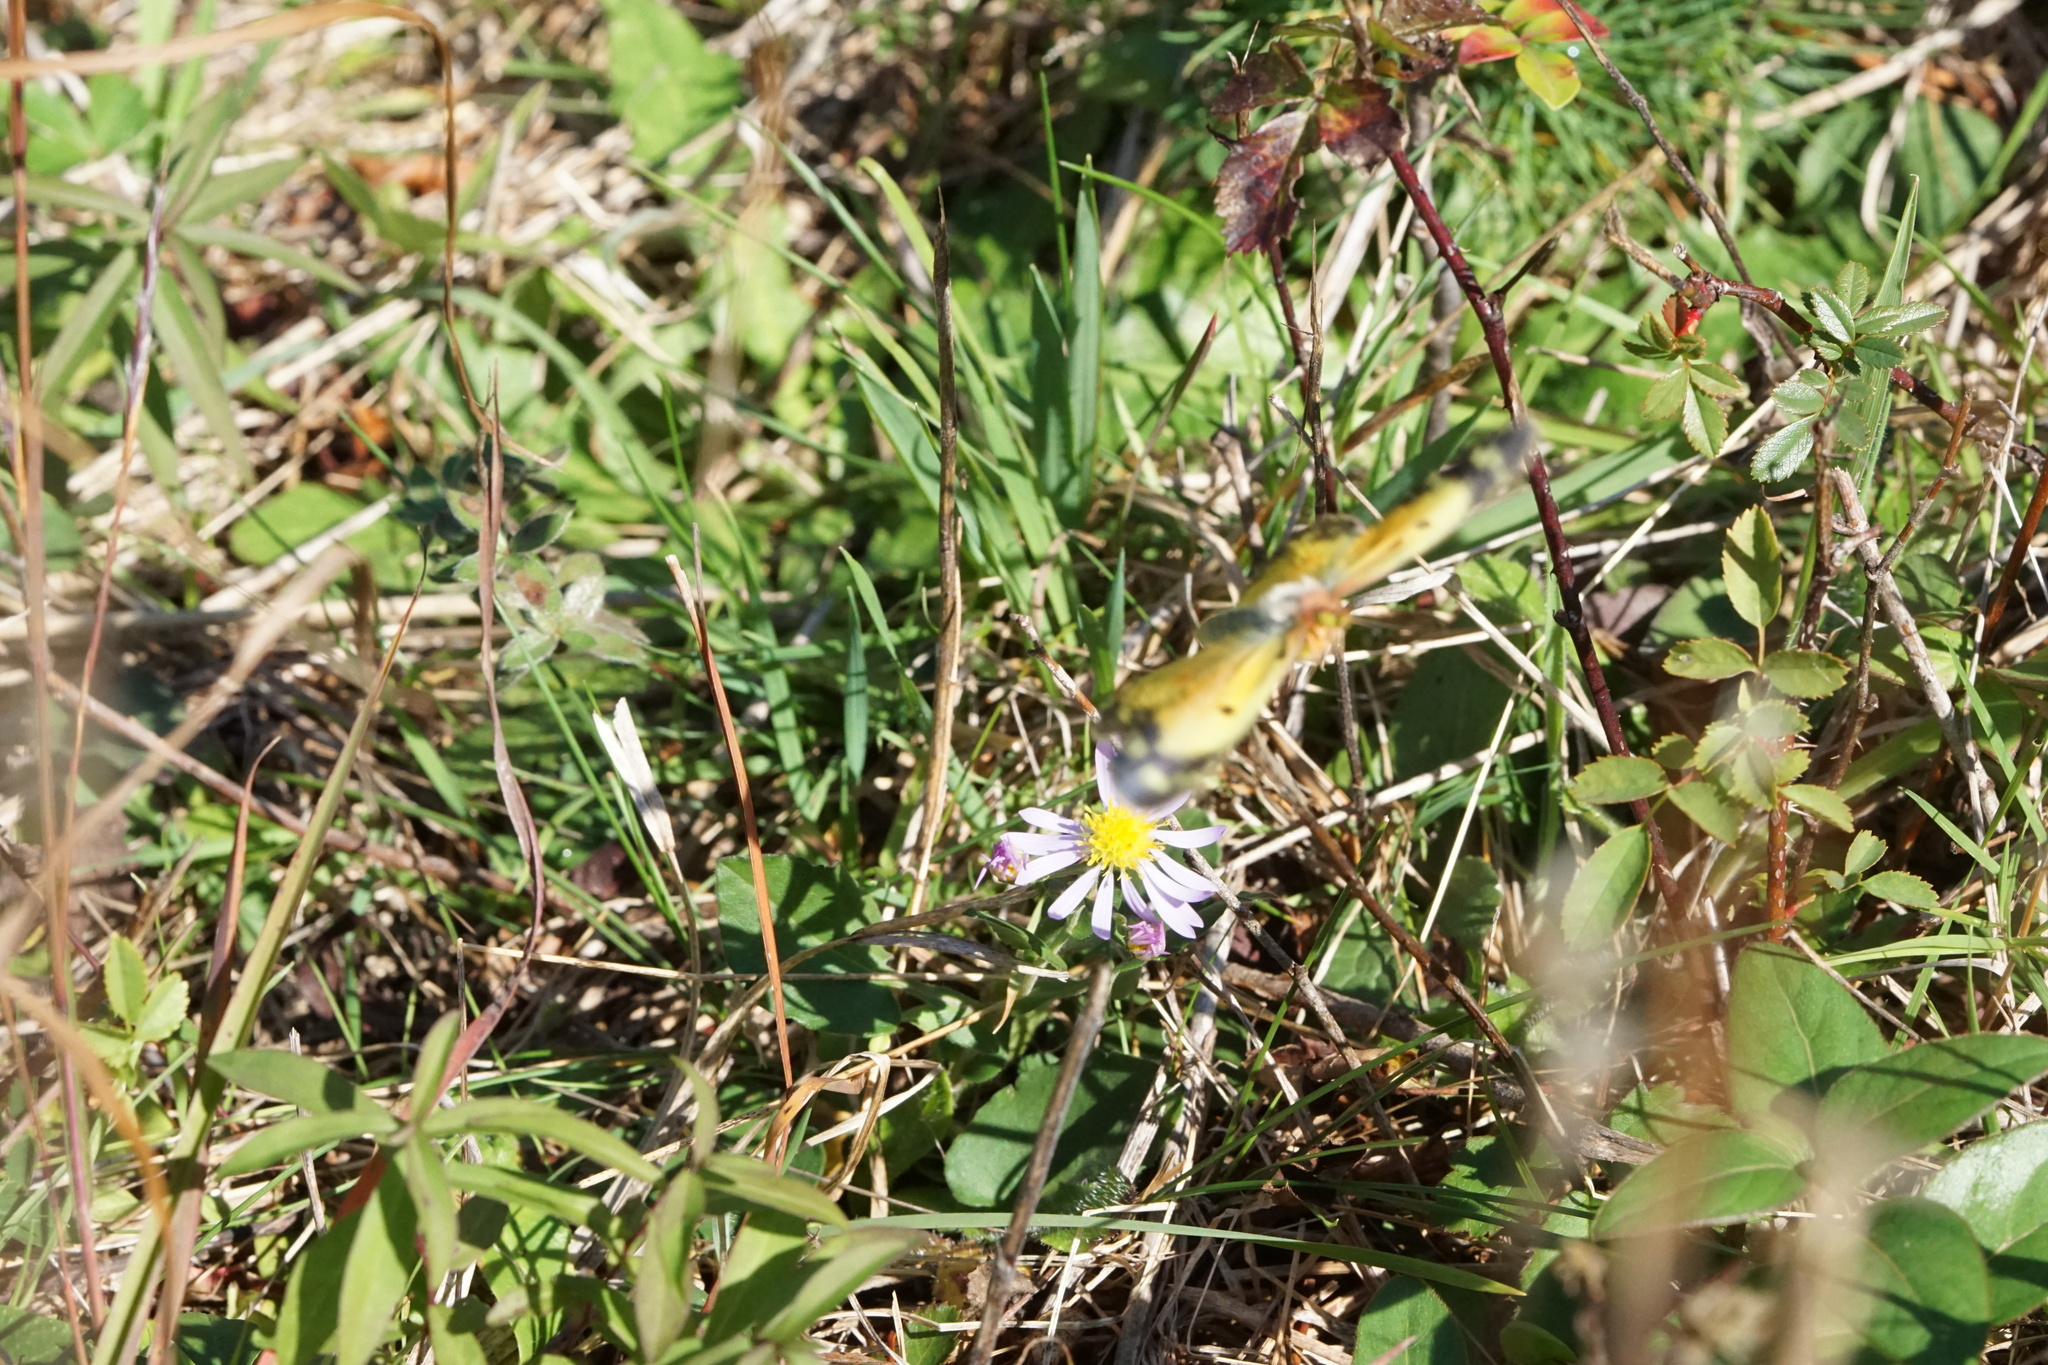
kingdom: Animalia
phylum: Arthropoda
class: Insecta
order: Lepidoptera
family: Pieridae
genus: Colias
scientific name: Colias eurytheme
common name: Alfalfa butterfly
